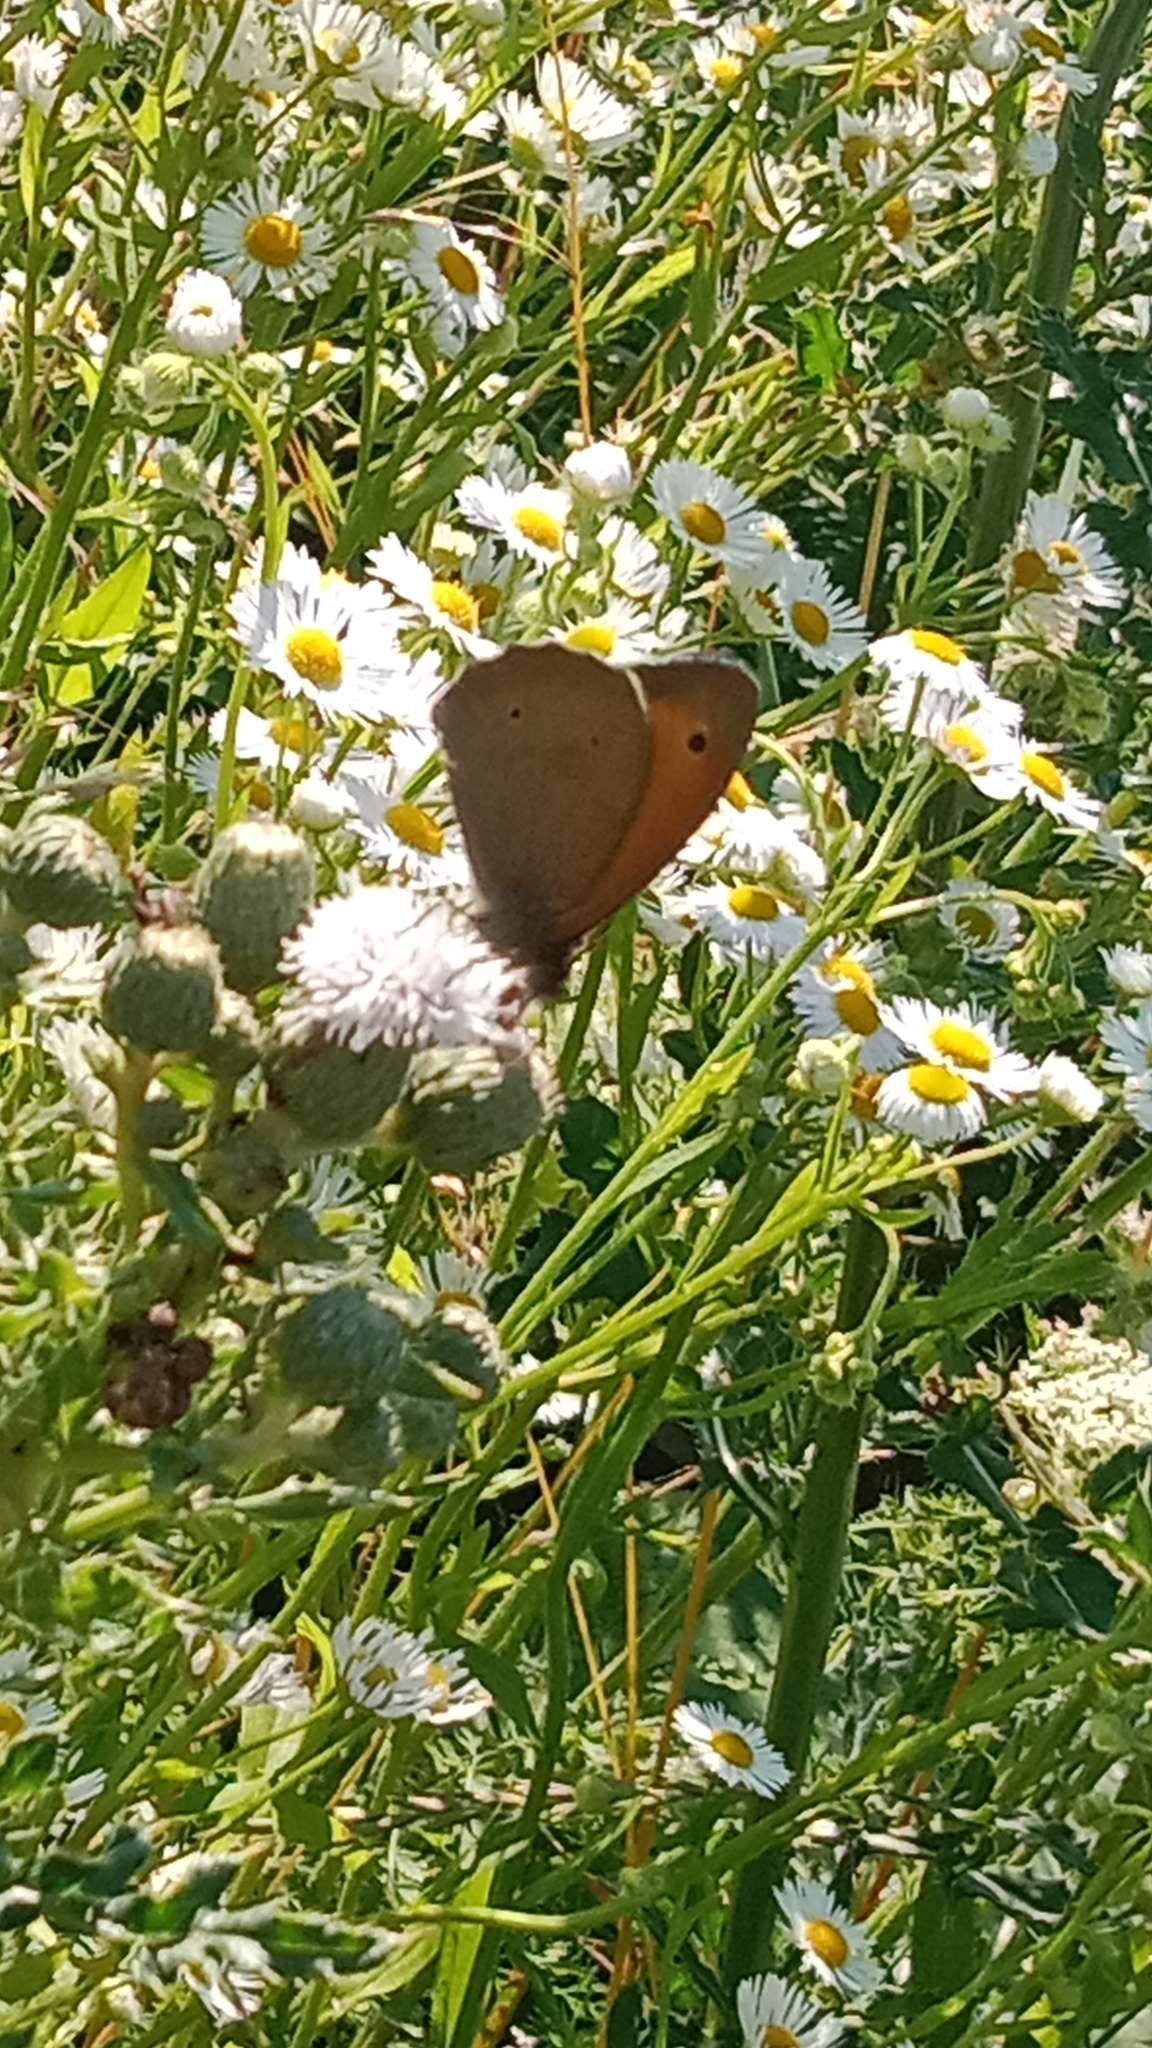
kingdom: Animalia
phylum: Arthropoda
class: Insecta
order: Lepidoptera
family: Nymphalidae
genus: Maniola
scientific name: Maniola jurtina
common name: Meadow brown
